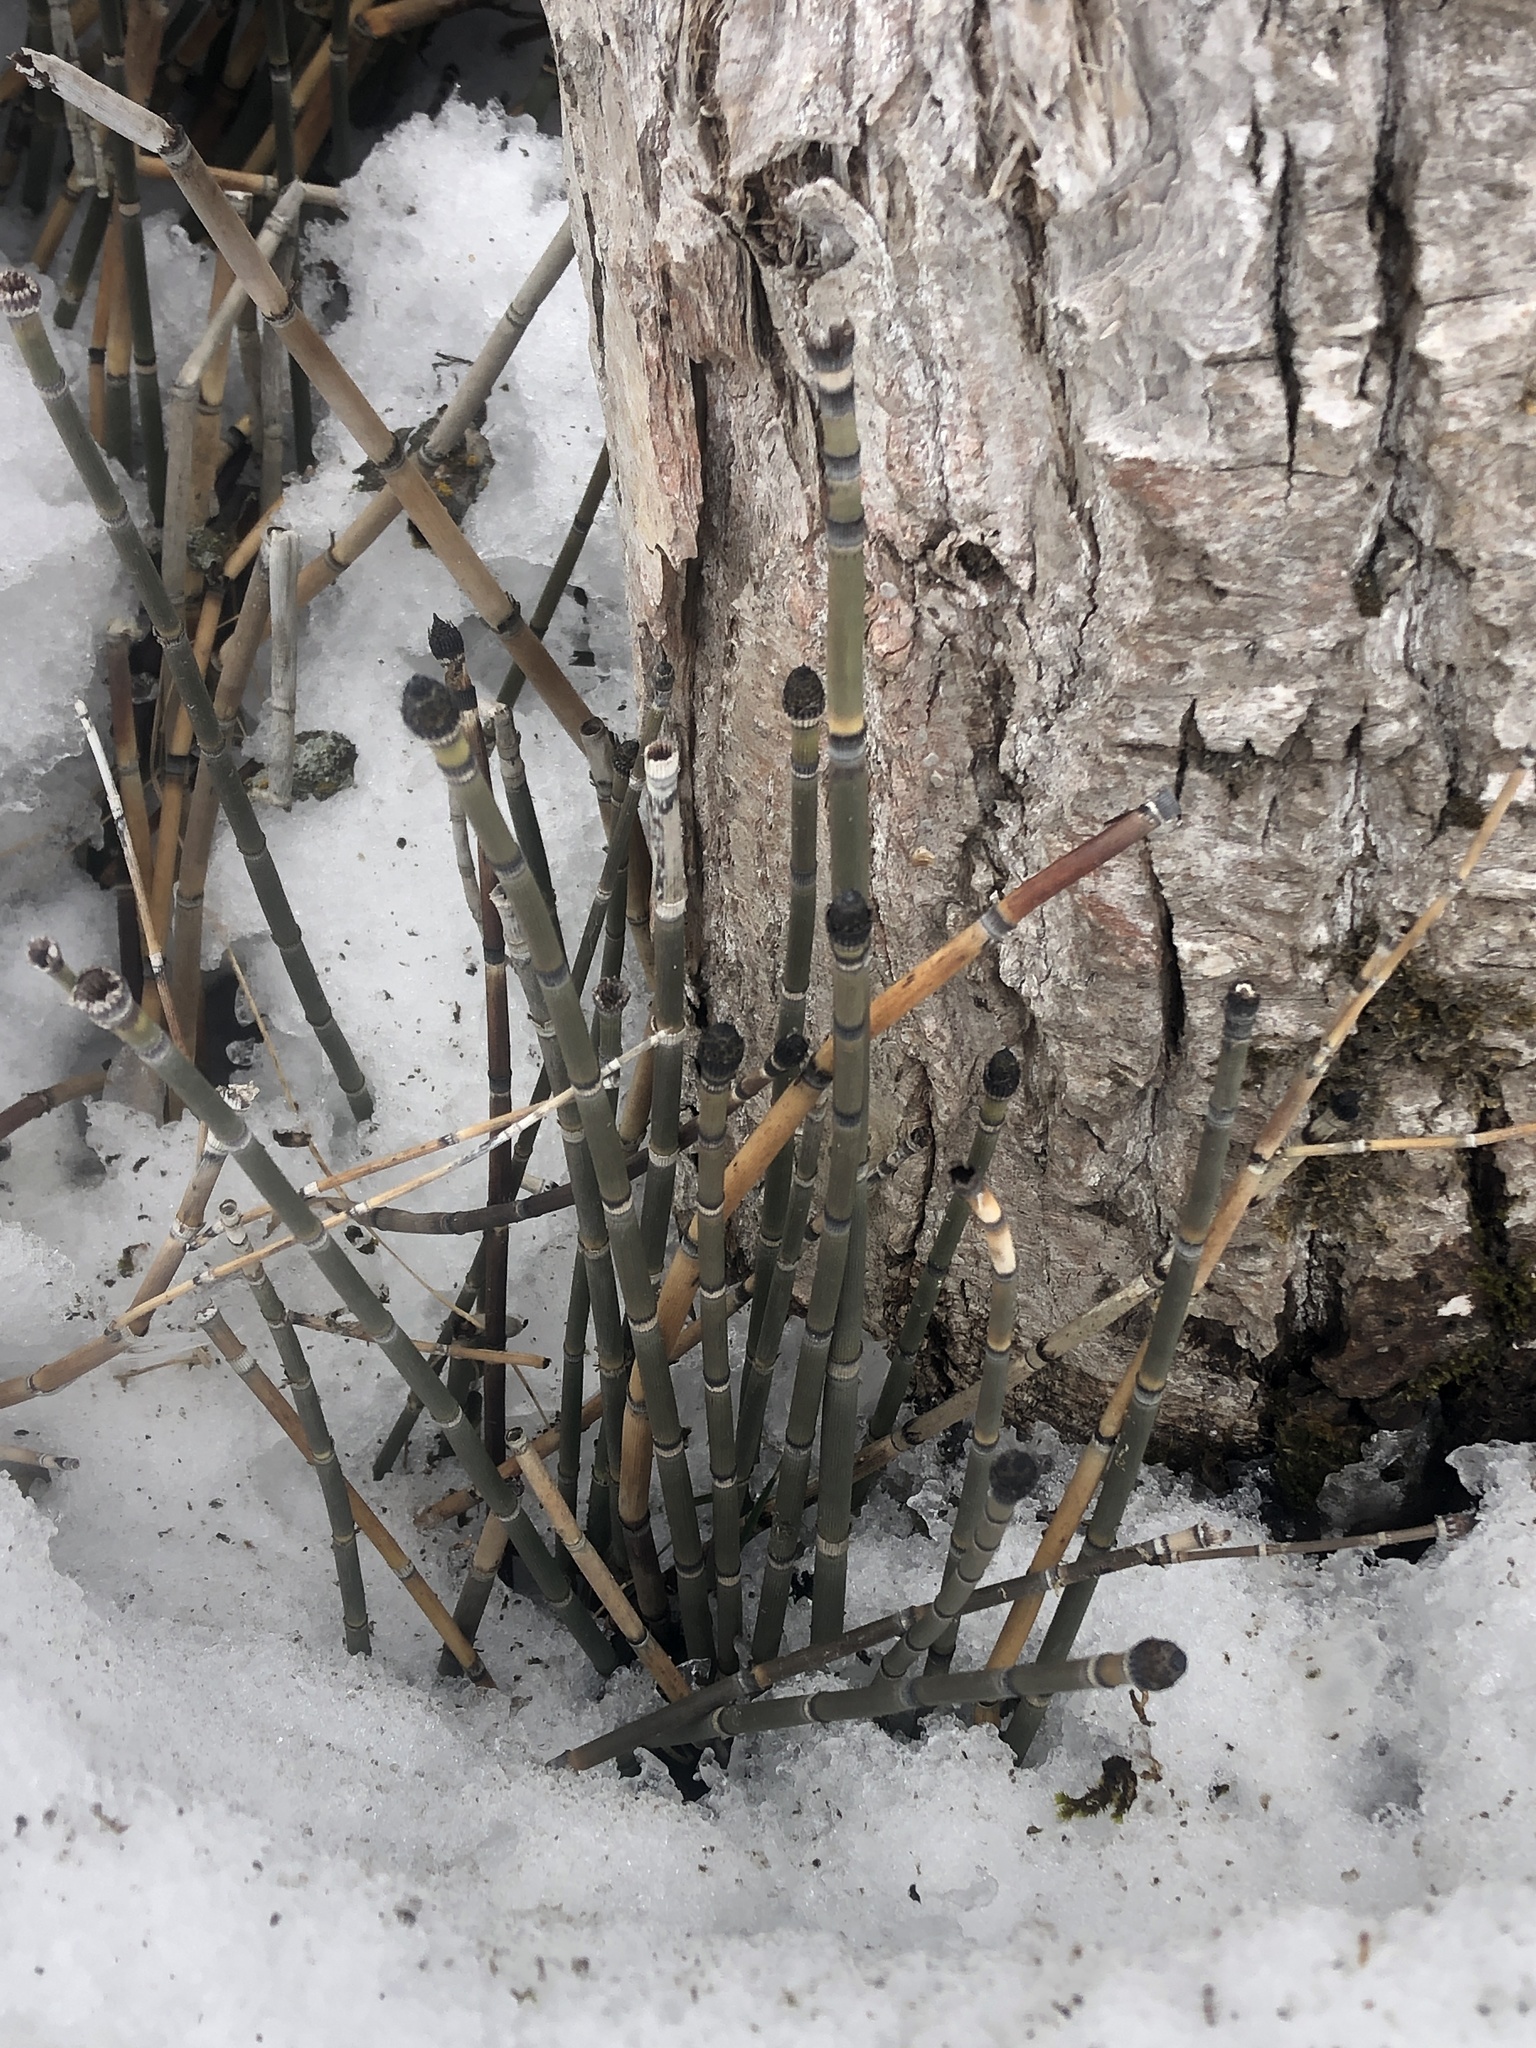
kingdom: Plantae
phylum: Tracheophyta
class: Polypodiopsida
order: Equisetales
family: Equisetaceae
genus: Equisetum
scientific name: Equisetum praealtum
